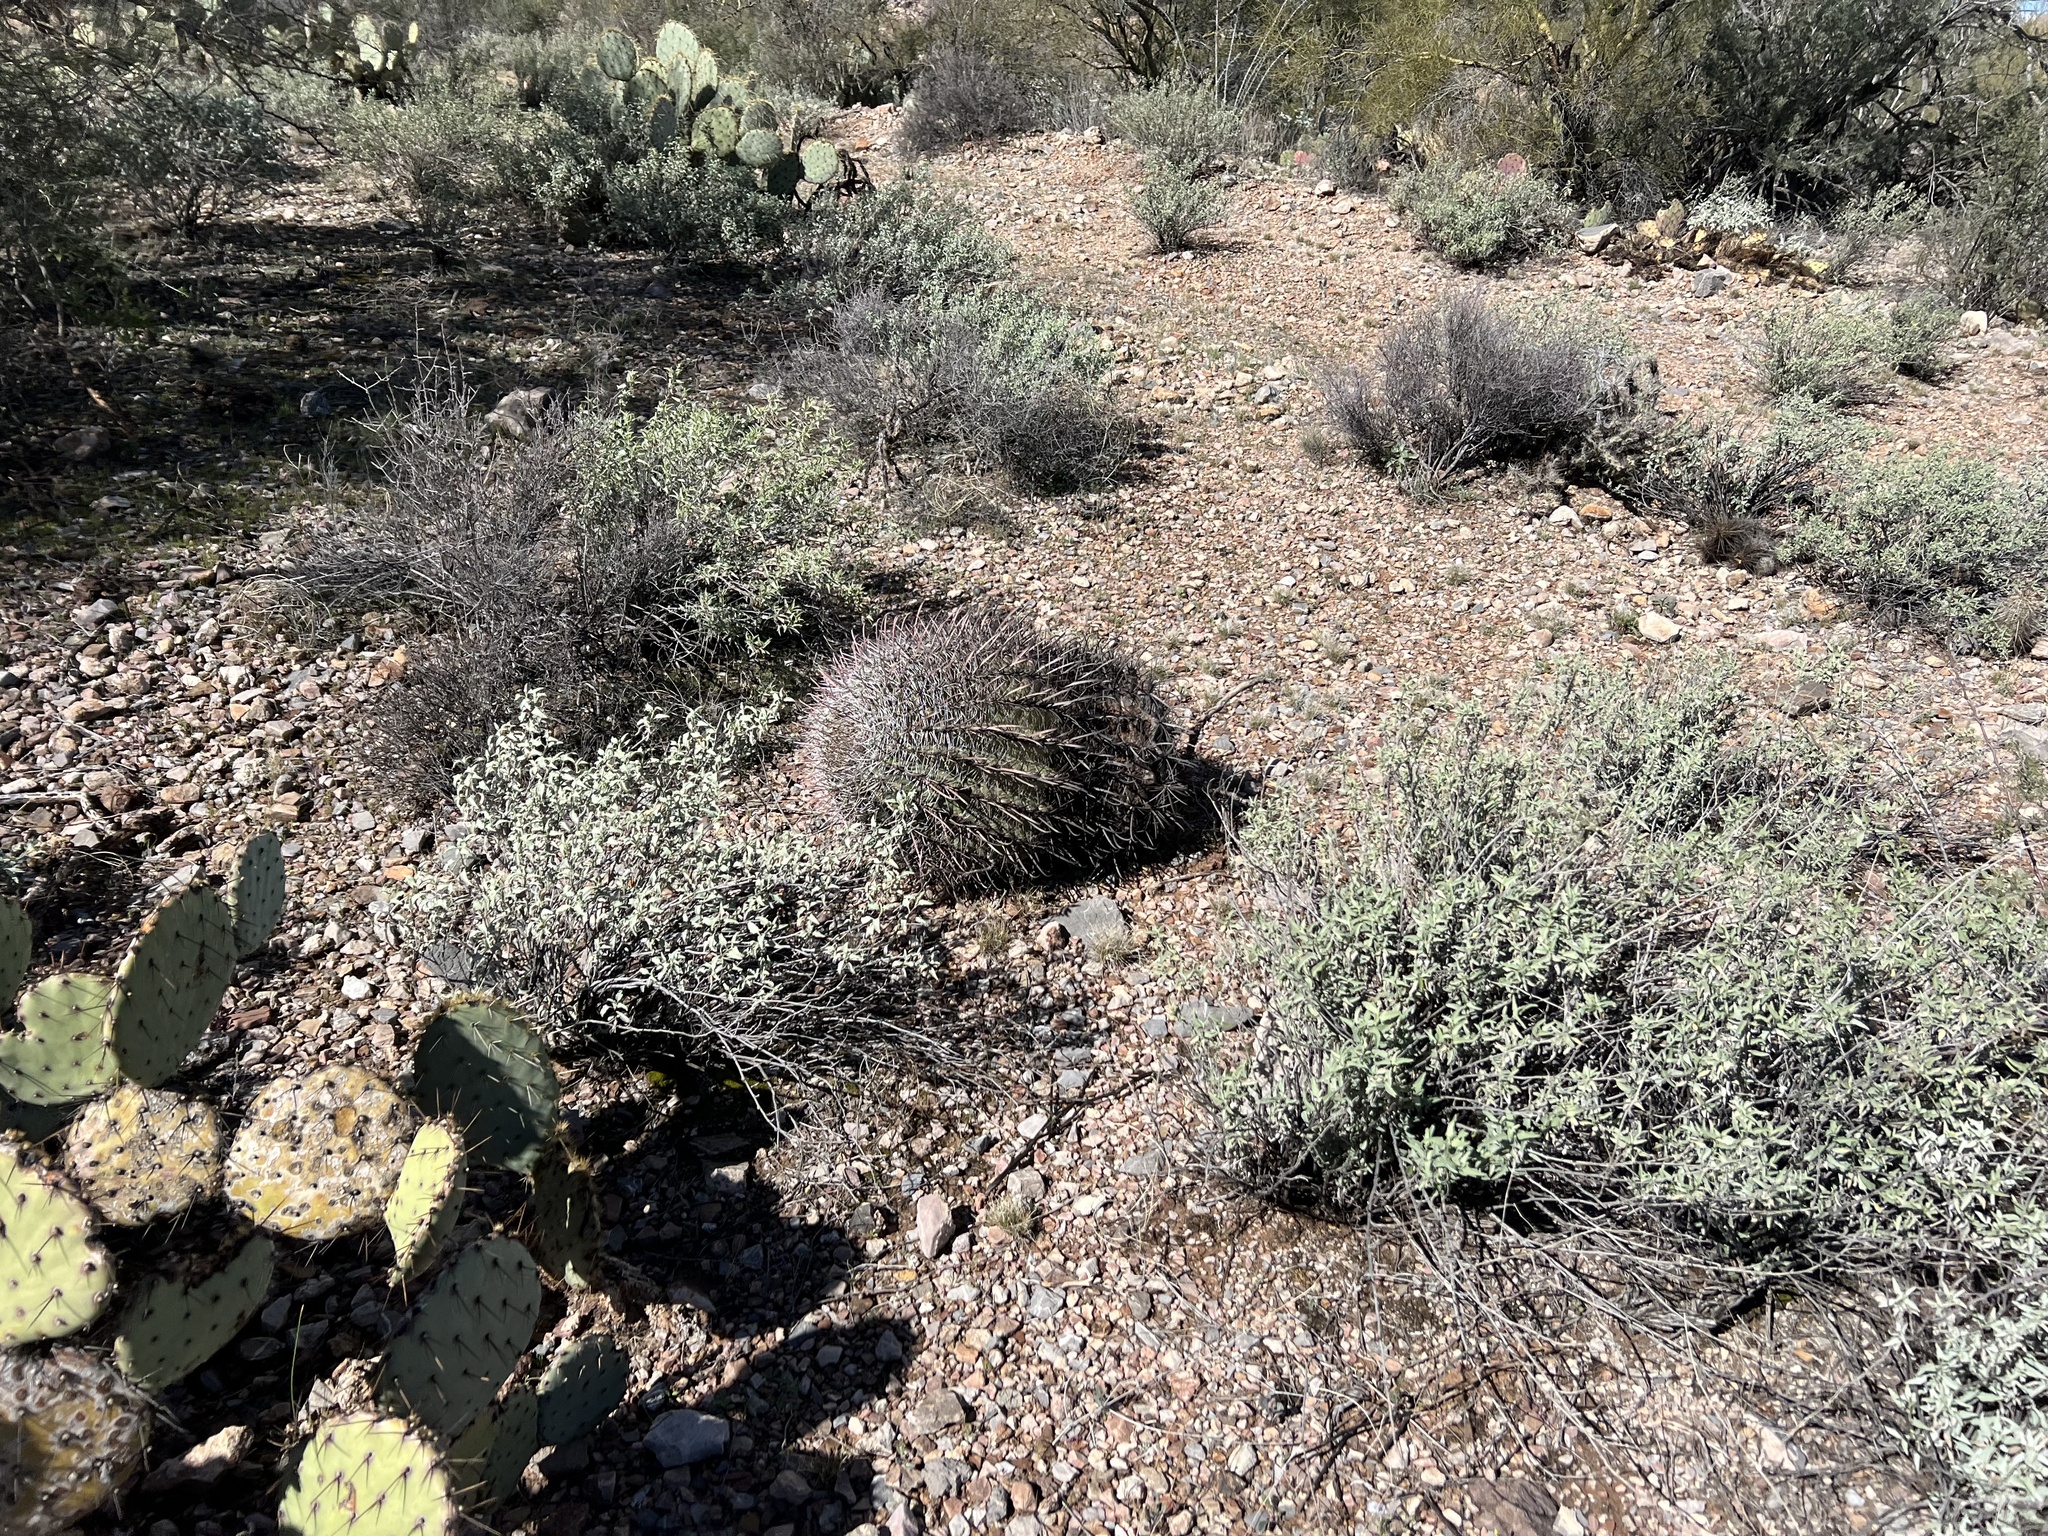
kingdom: Plantae
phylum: Tracheophyta
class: Magnoliopsida
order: Caryophyllales
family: Cactaceae
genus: Ferocactus
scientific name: Ferocactus wislizeni
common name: Candy barrel cactus
